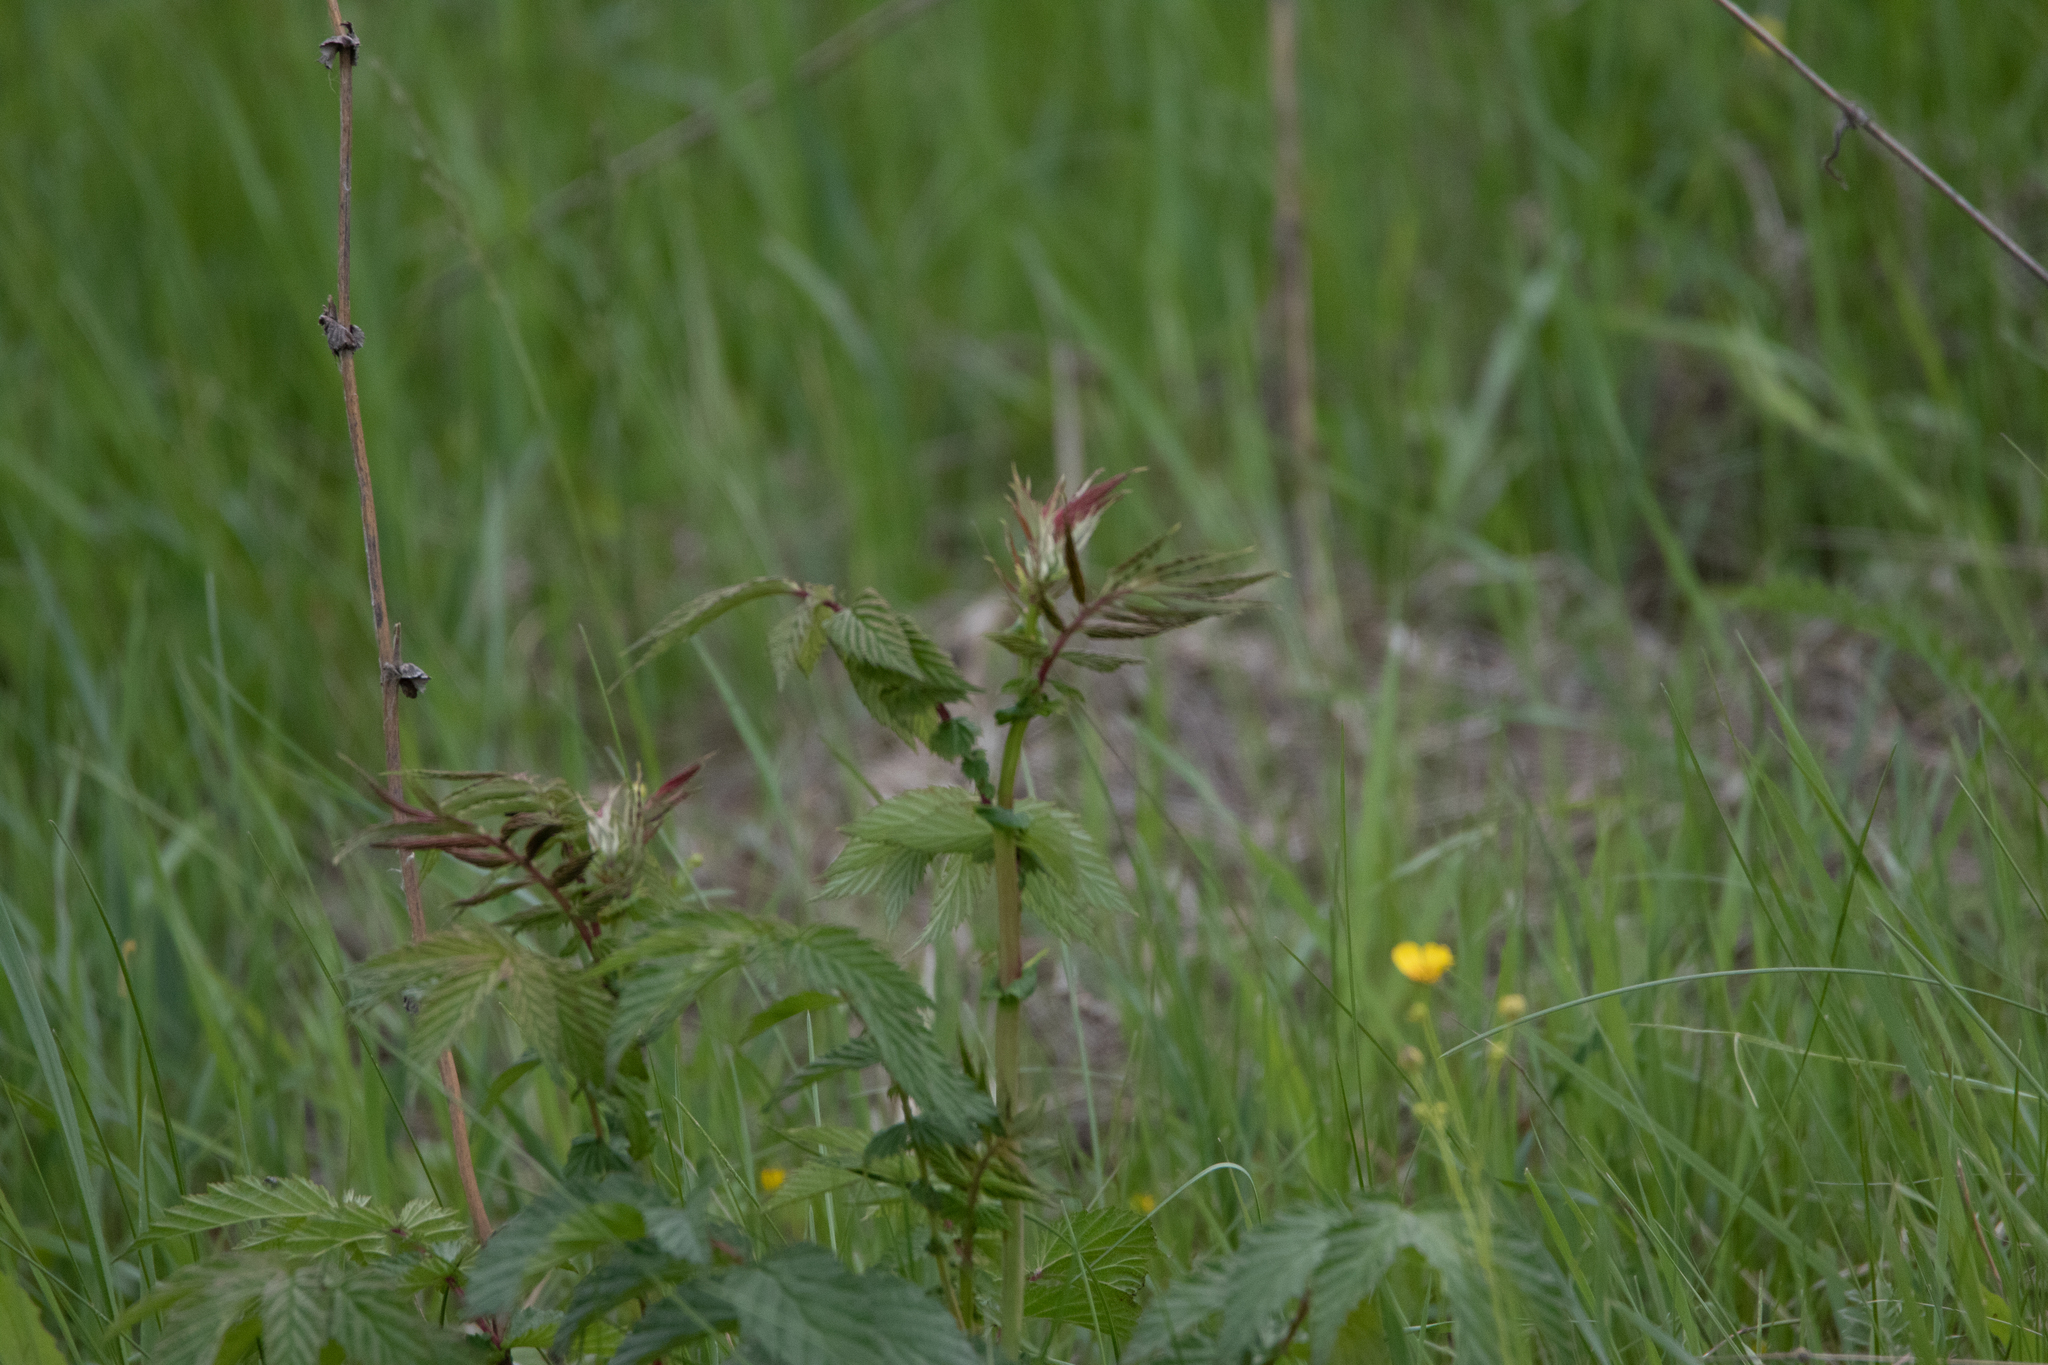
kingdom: Plantae
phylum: Tracheophyta
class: Magnoliopsida
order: Rosales
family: Rosaceae
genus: Filipendula
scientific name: Filipendula ulmaria
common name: Meadowsweet
